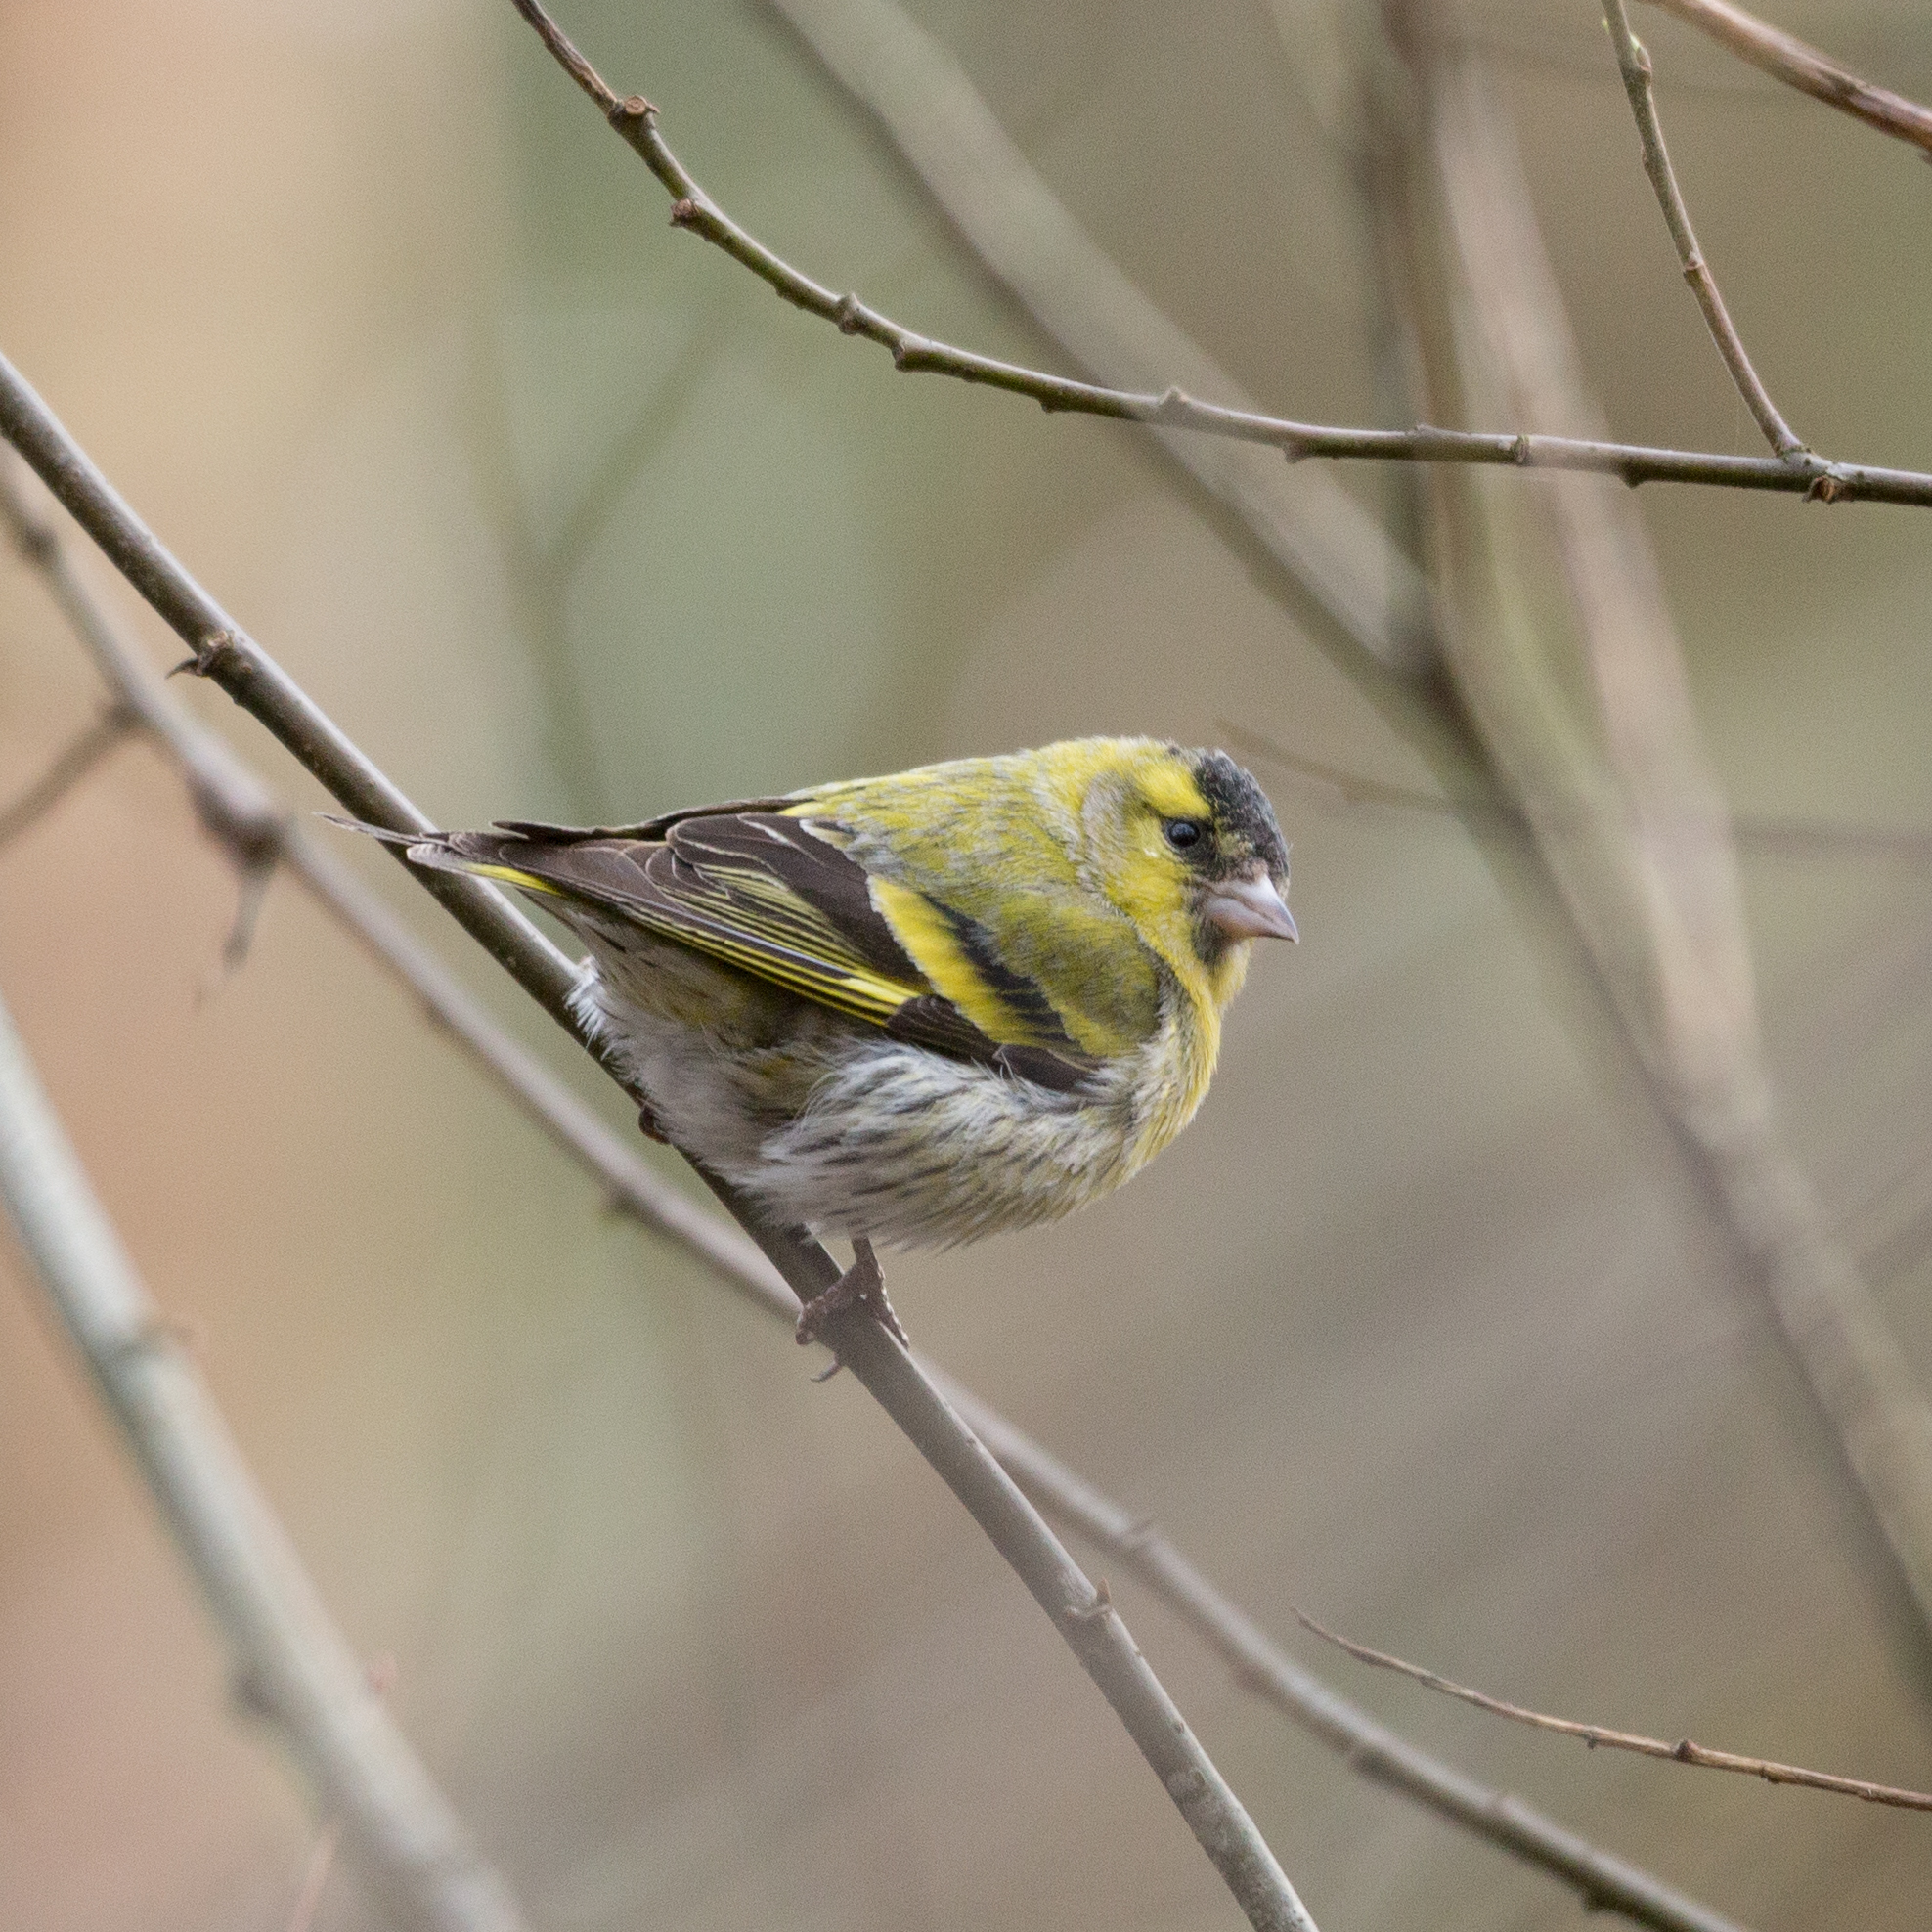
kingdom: Animalia
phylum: Chordata
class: Aves
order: Passeriformes
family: Fringillidae
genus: Spinus
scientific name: Spinus spinus
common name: Eurasian siskin
